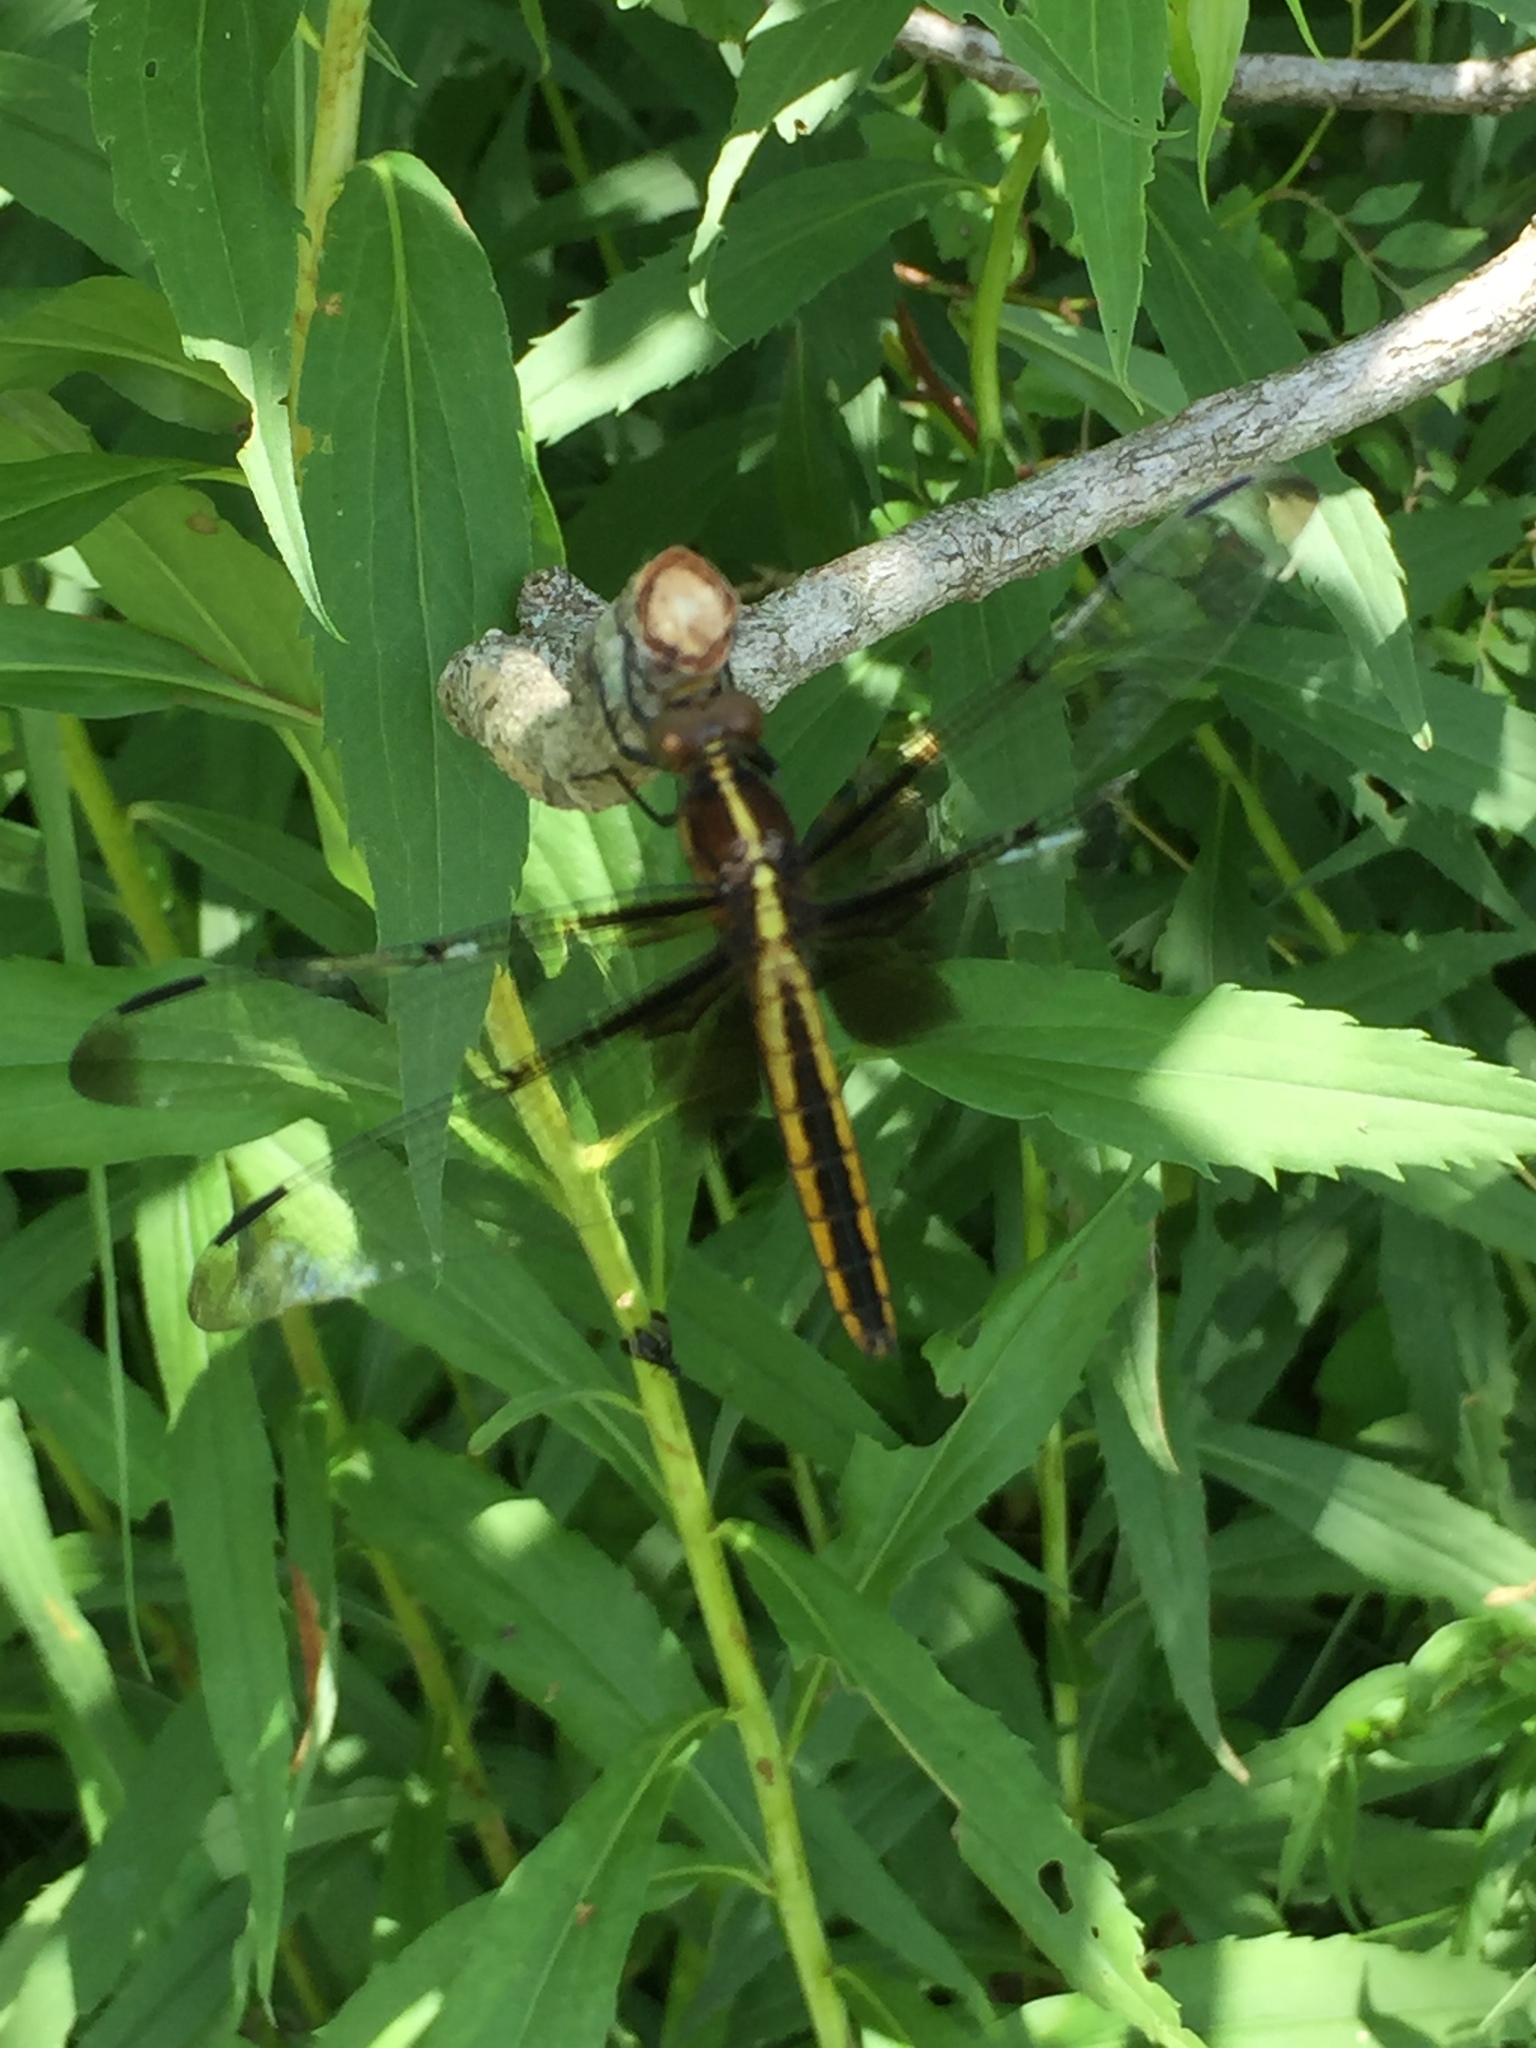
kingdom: Animalia
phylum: Arthropoda
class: Insecta
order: Odonata
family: Libellulidae
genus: Libellula
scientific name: Libellula luctuosa
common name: Widow skimmer
